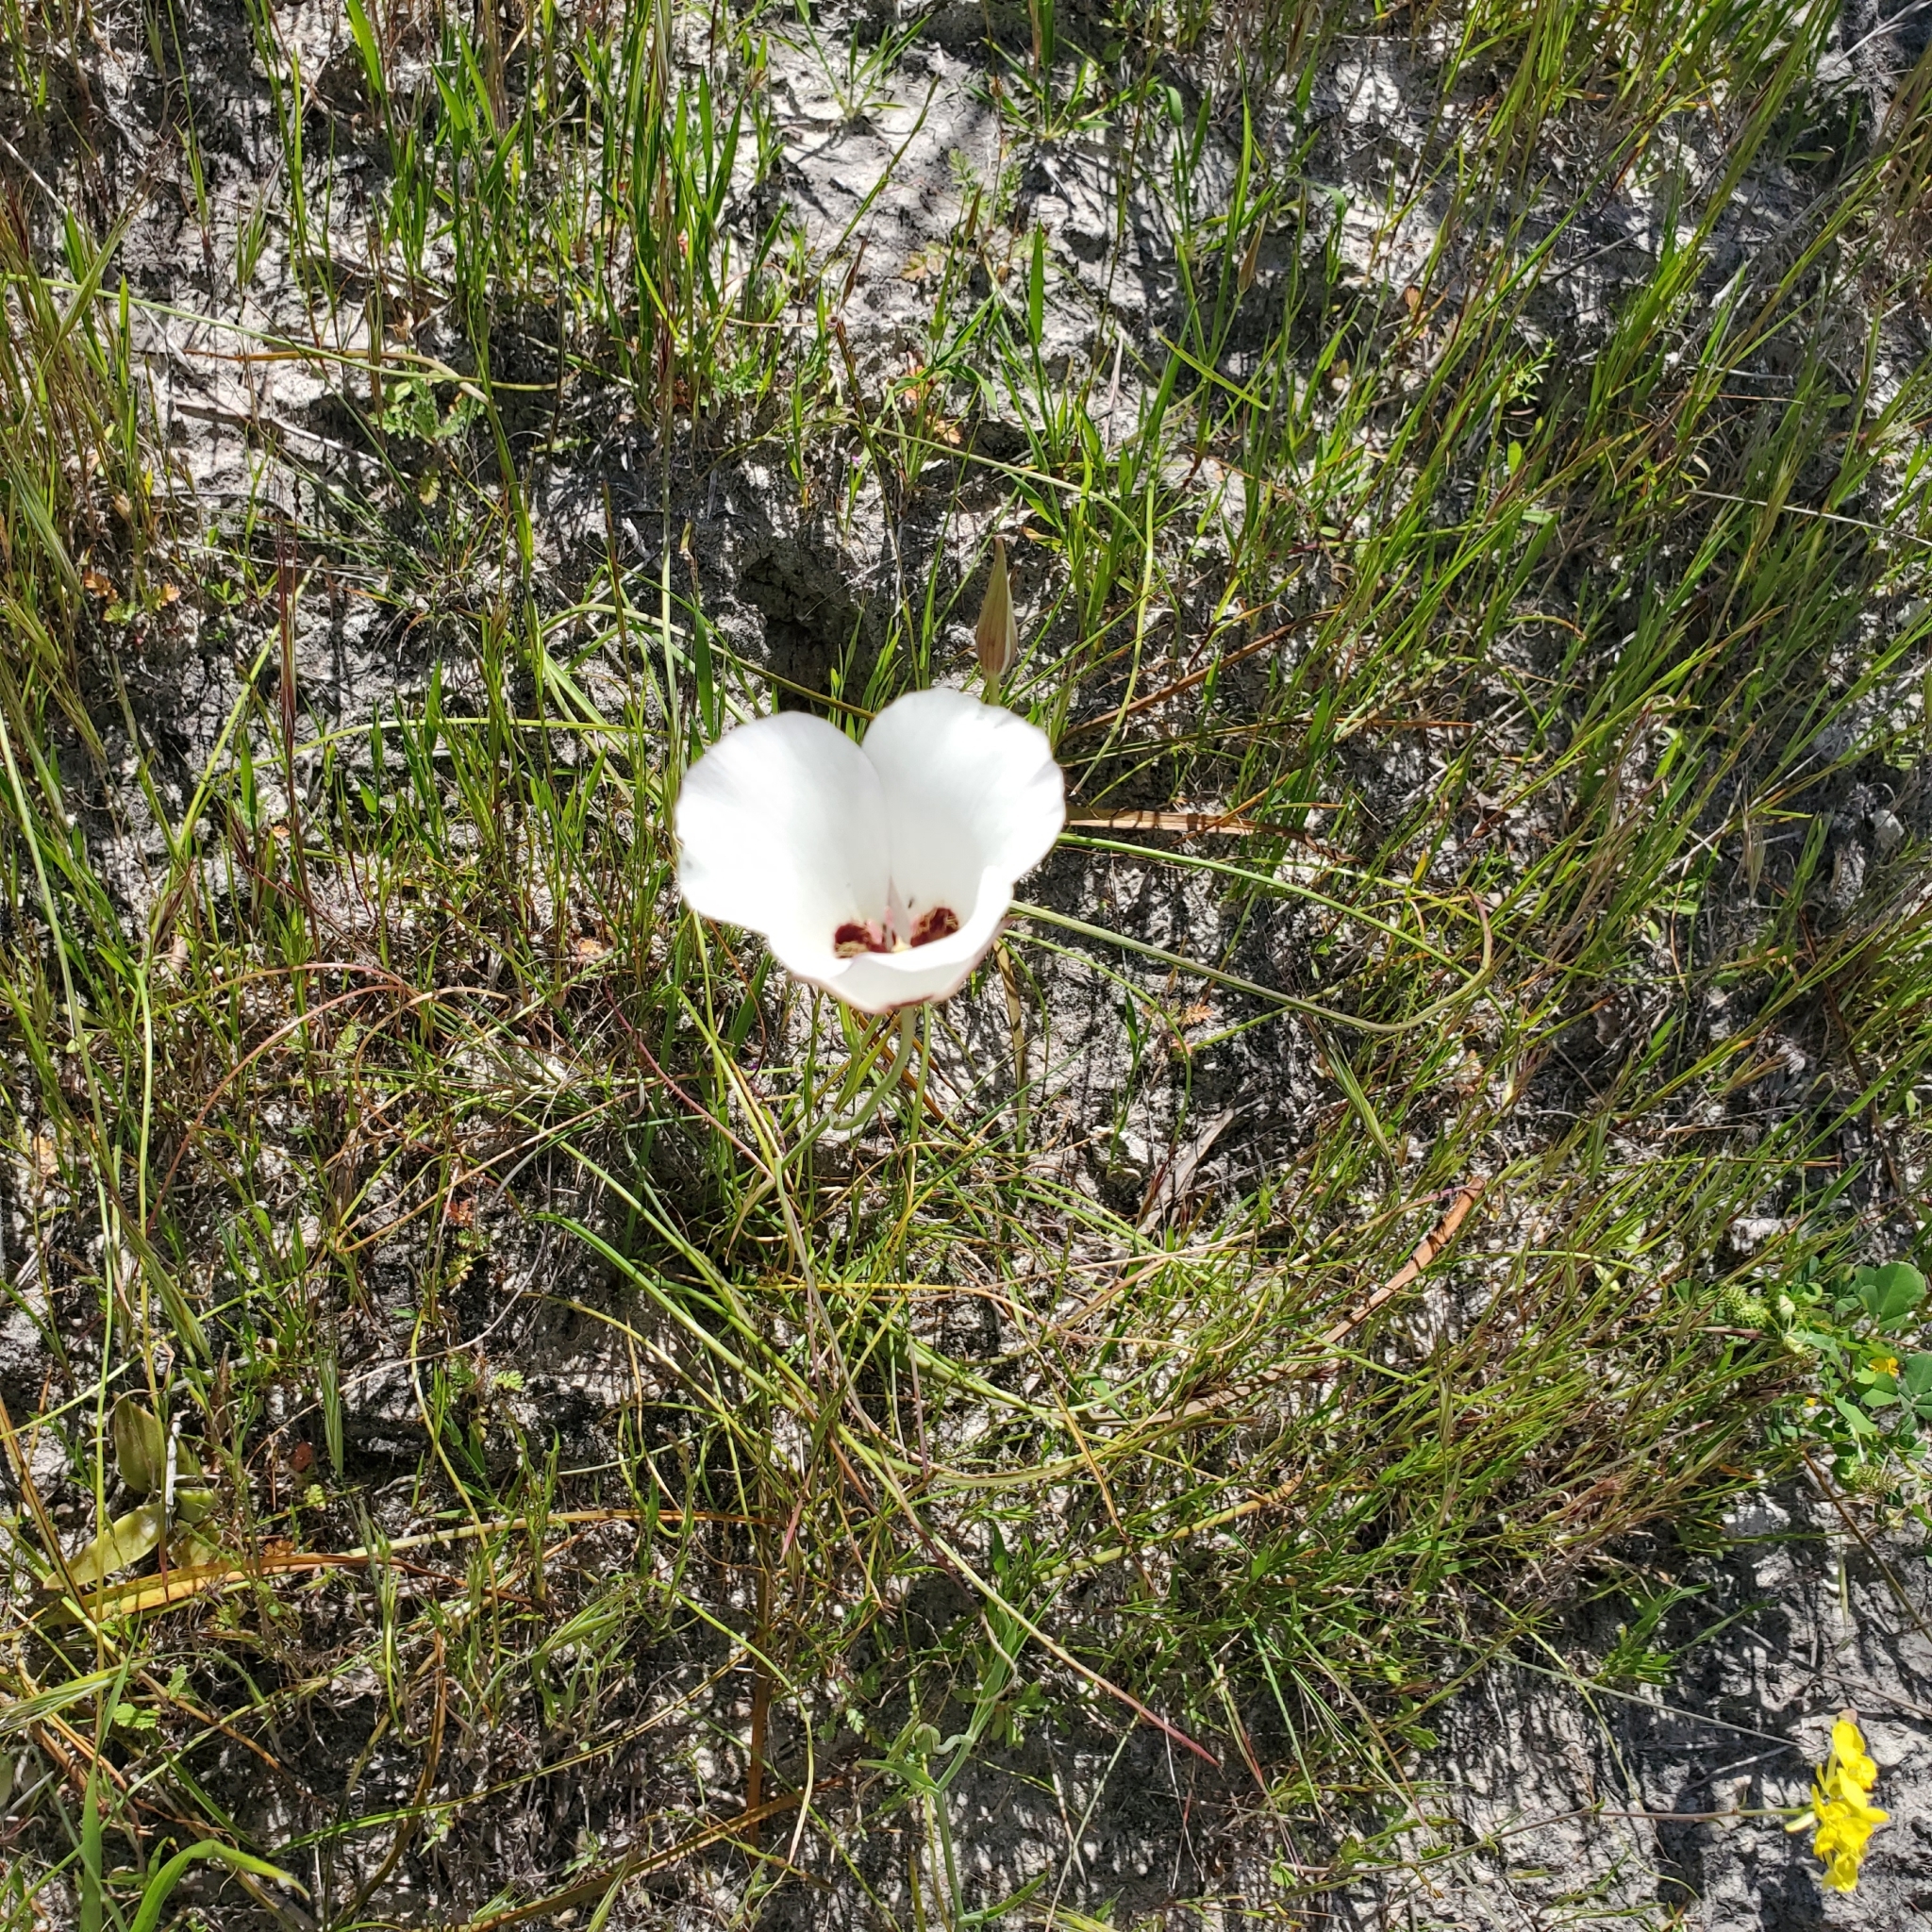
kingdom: Plantae
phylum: Tracheophyta
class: Liliopsida
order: Liliales
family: Liliaceae
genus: Calochortus
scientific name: Calochortus catalinae
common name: Catalina mariposa-lily
